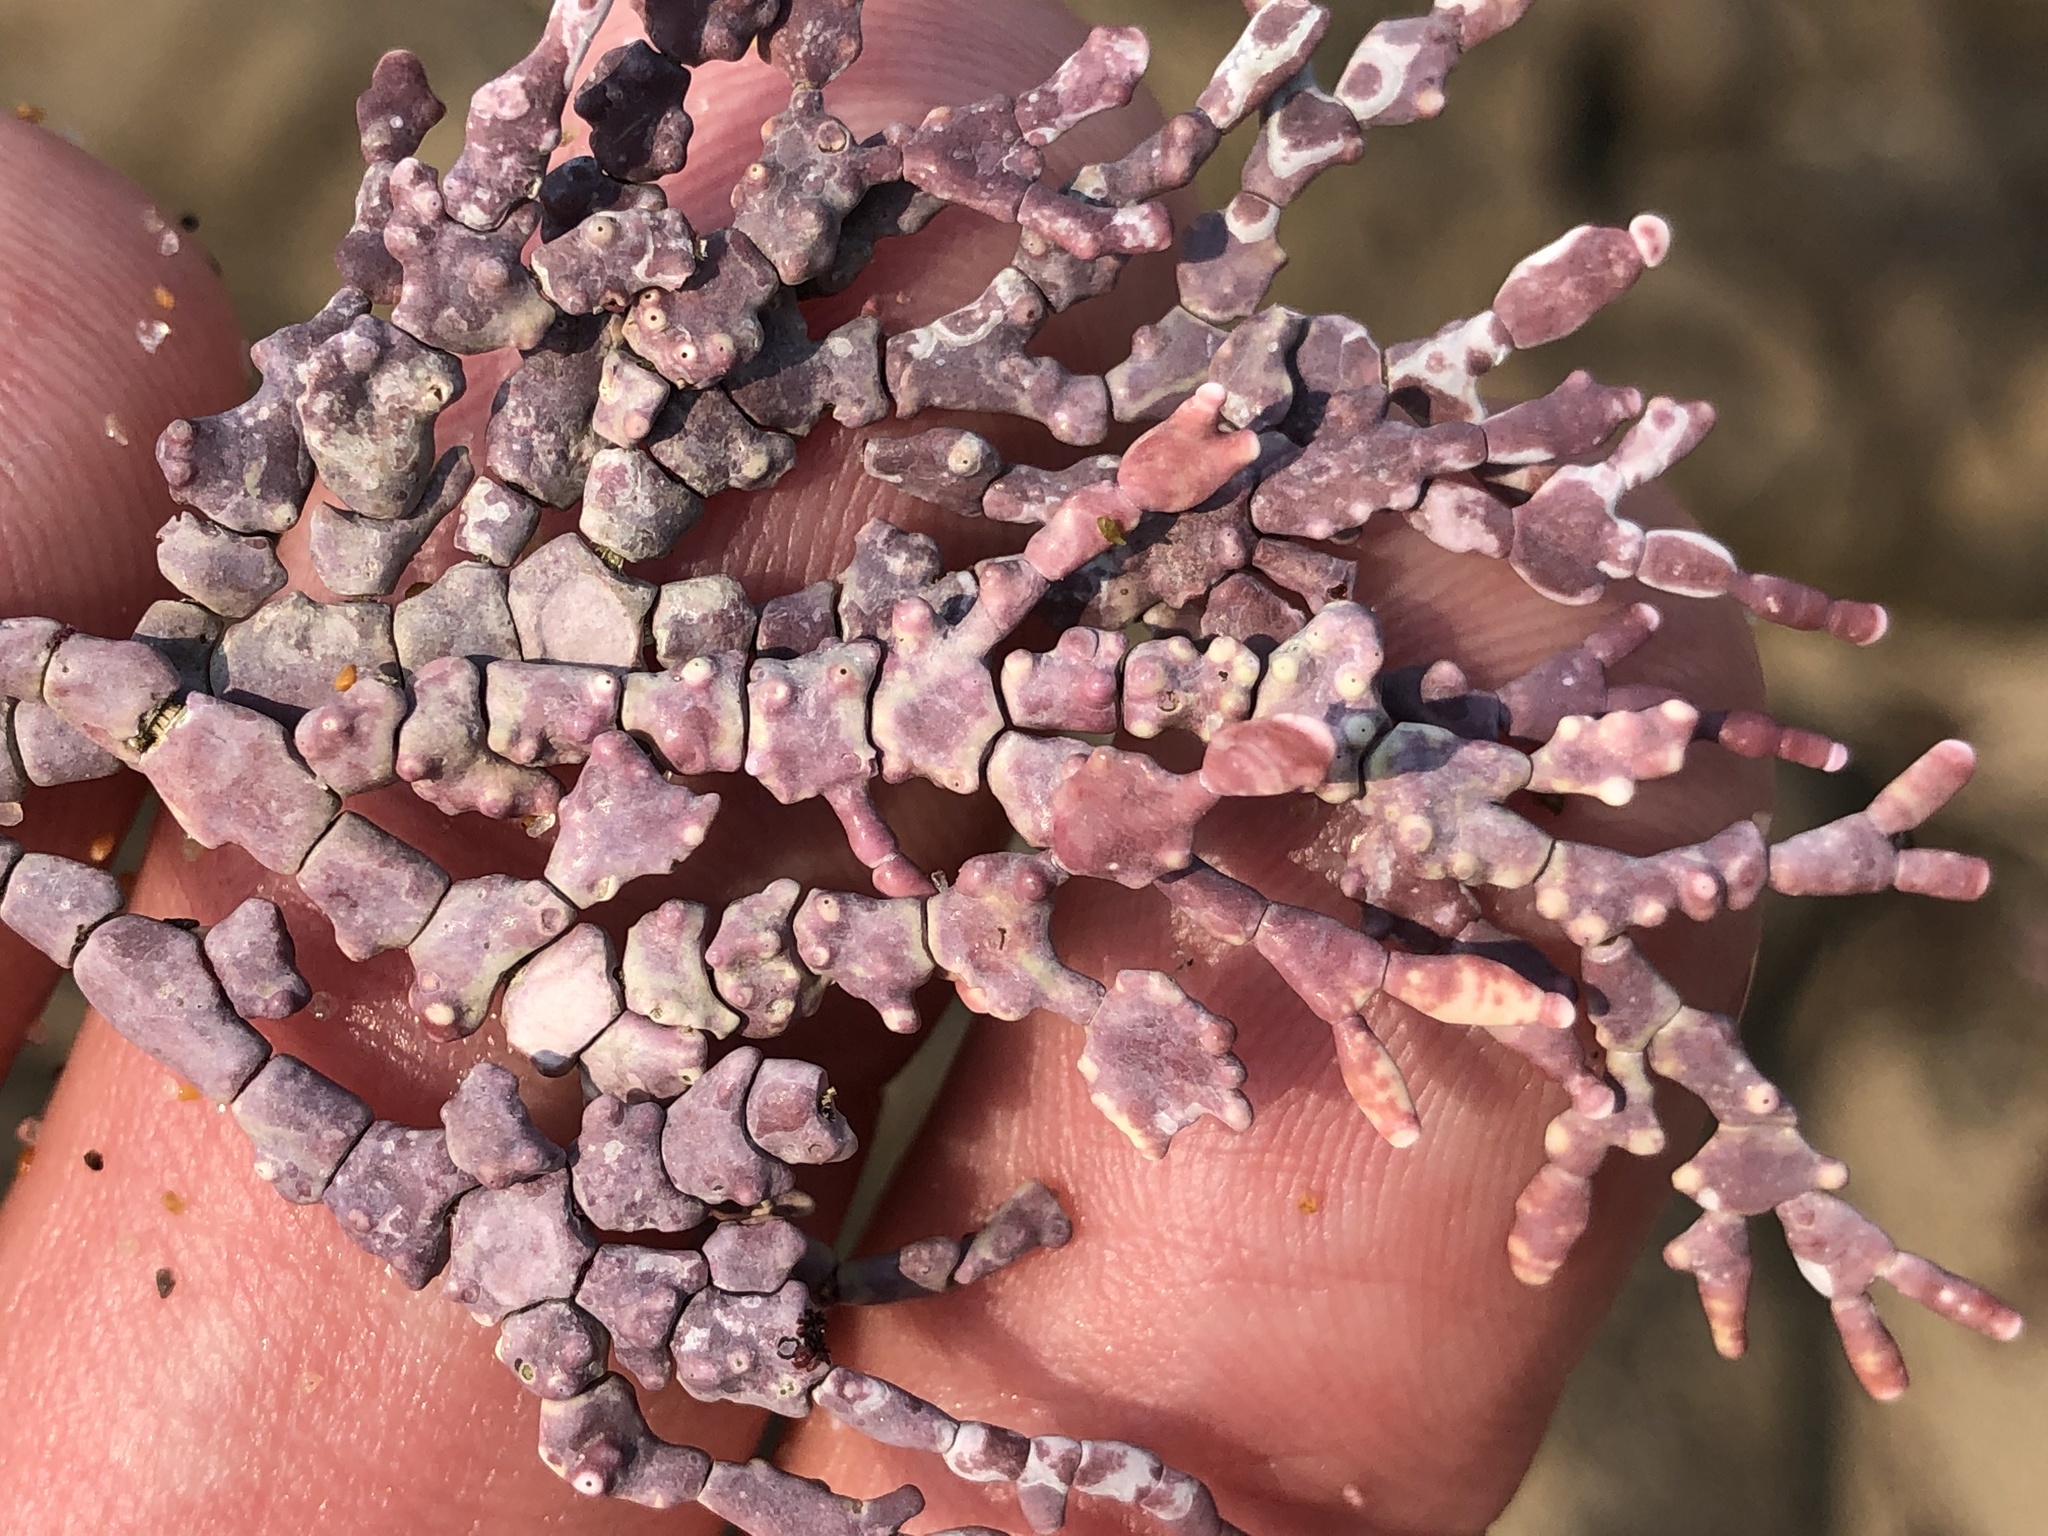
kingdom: Plantae
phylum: Rhodophyta
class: Florideophyceae
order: Corallinales
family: Corallinaceae
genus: Calliarthron
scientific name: Calliarthron tuberculosum
